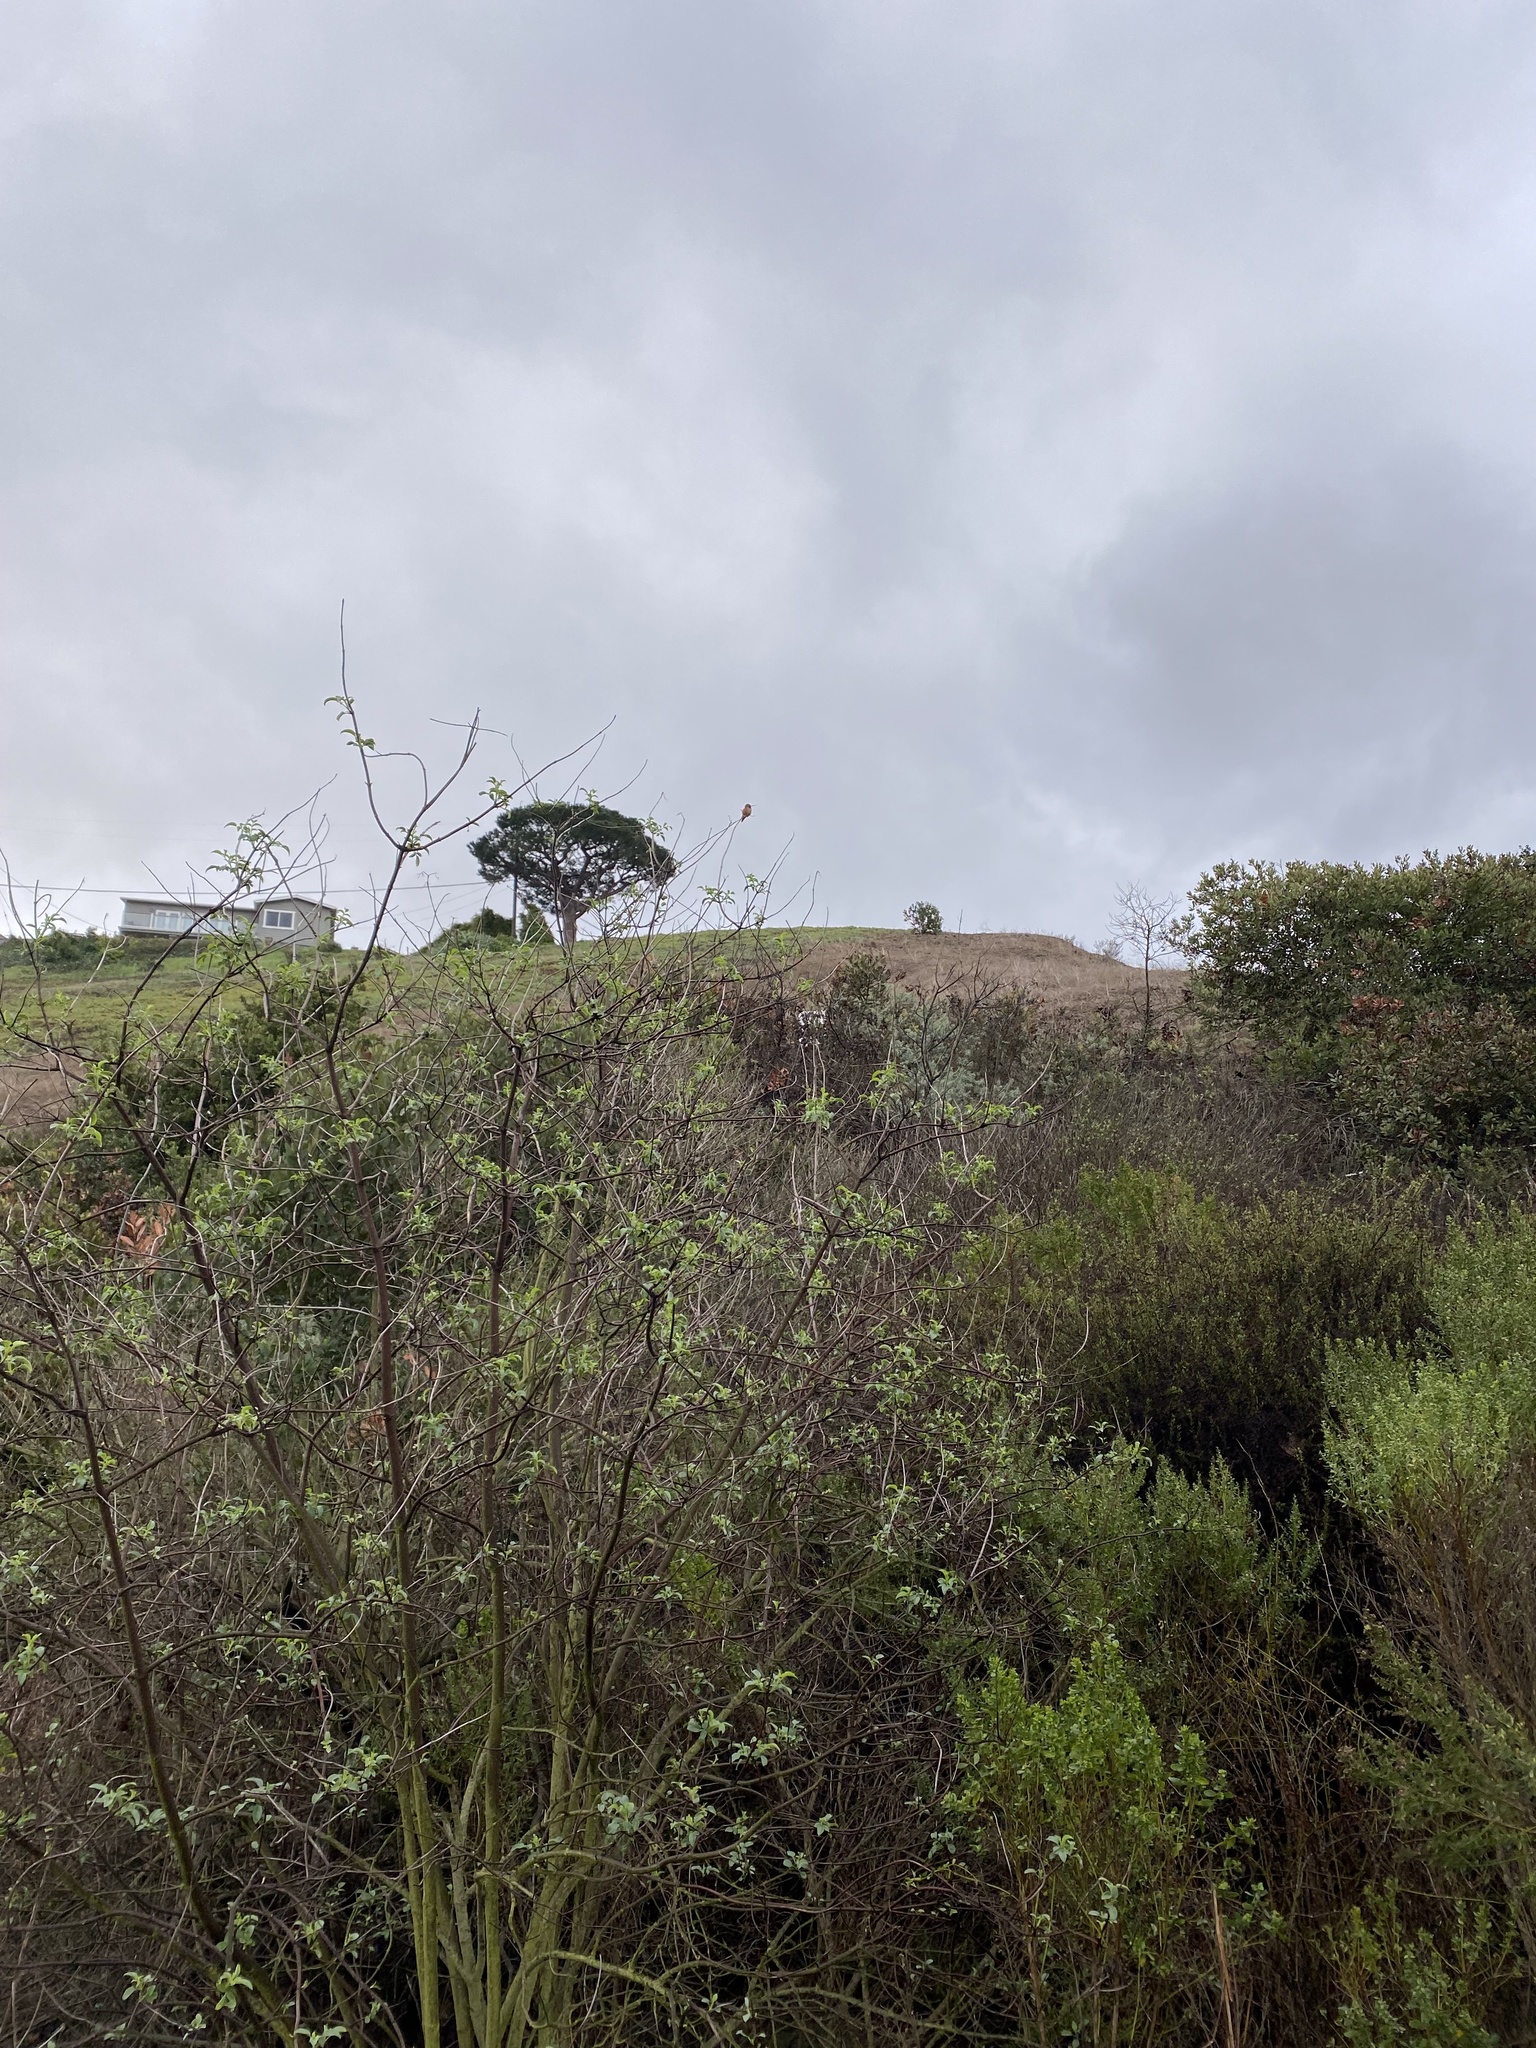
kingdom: Animalia
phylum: Chordata
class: Aves
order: Apodiformes
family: Trochilidae
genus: Selasphorus
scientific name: Selasphorus sasin
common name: Allen's hummingbird
